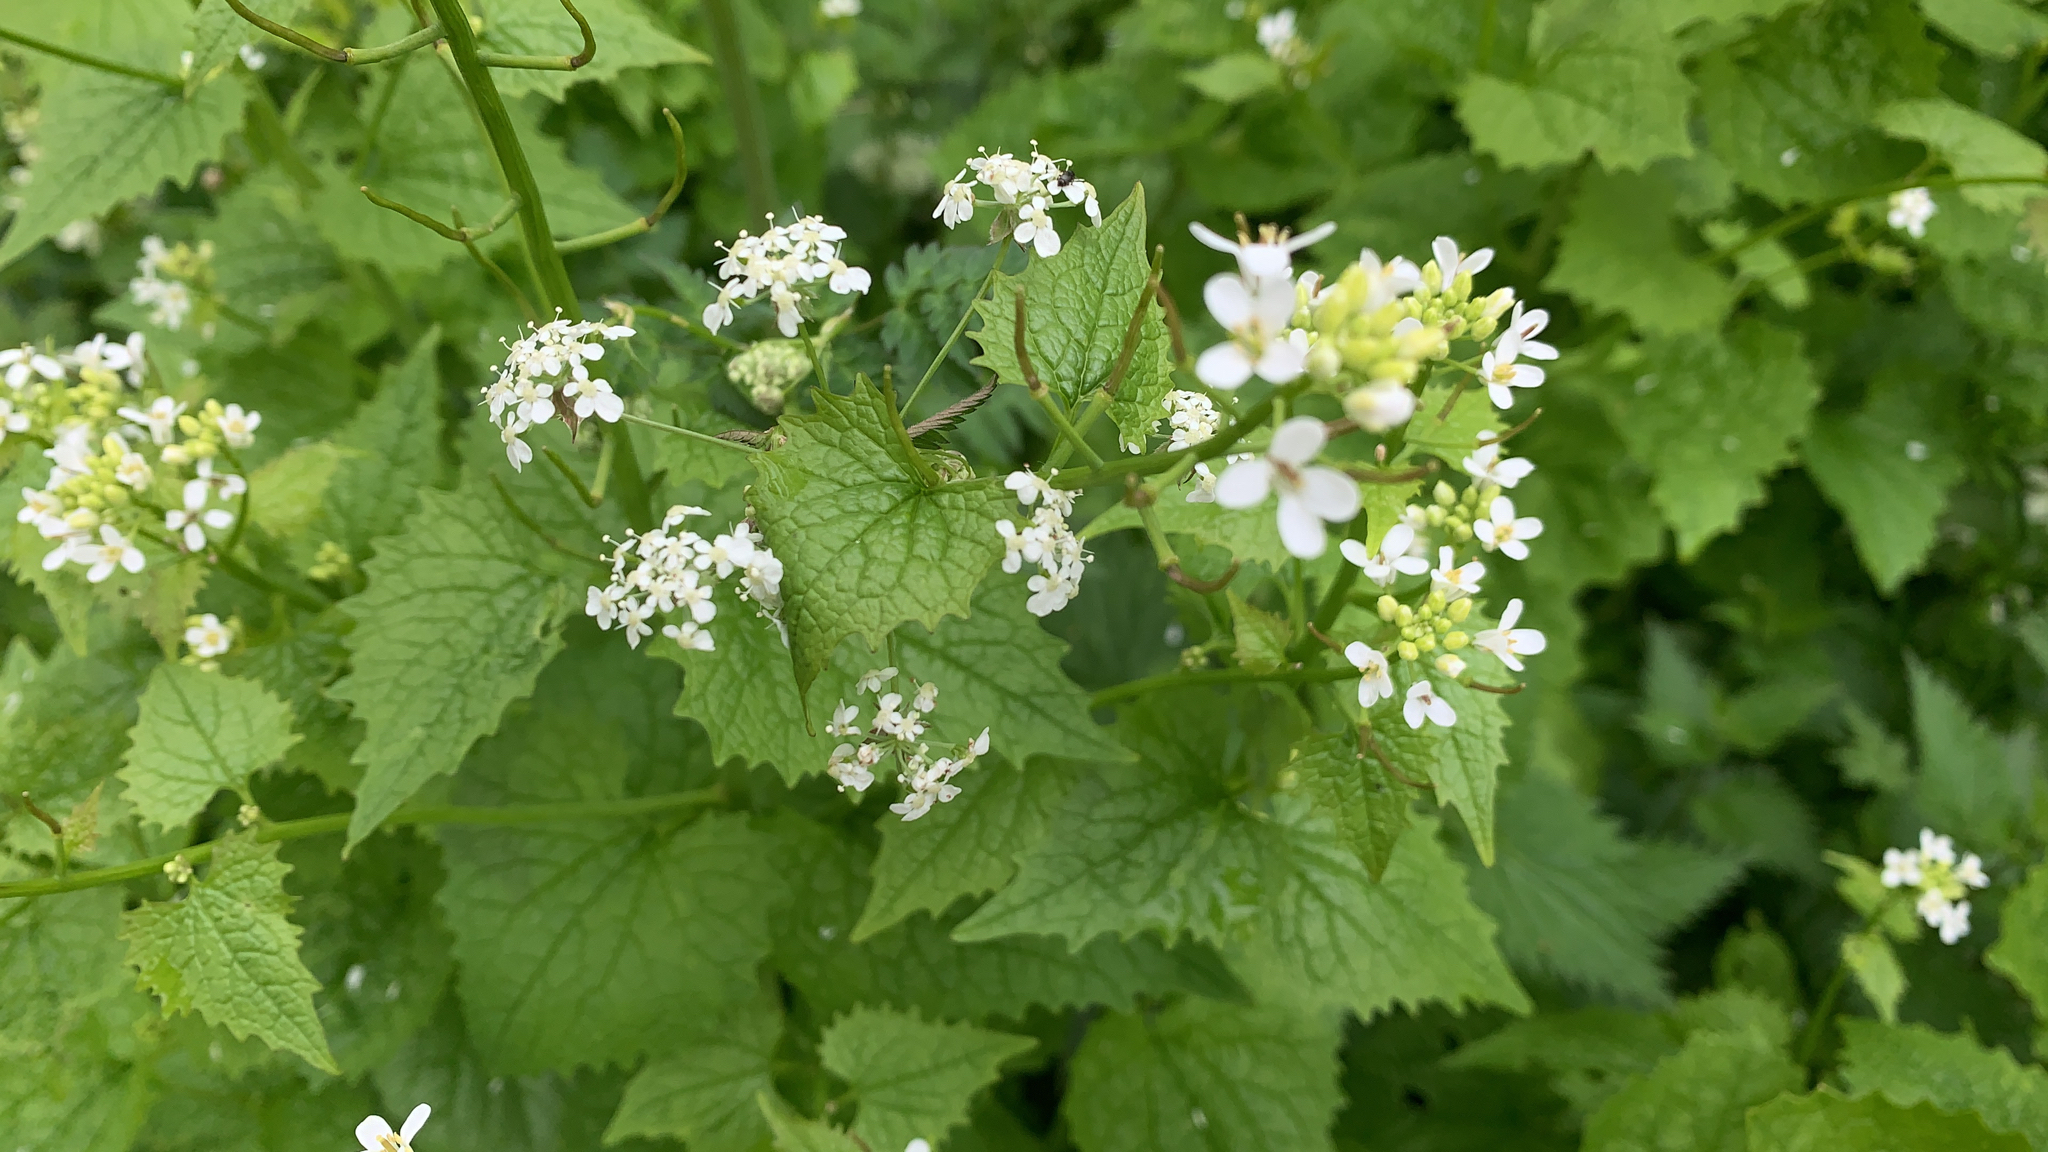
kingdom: Plantae
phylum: Tracheophyta
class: Magnoliopsida
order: Brassicales
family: Brassicaceae
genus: Alliaria
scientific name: Alliaria petiolata
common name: Garlic mustard
